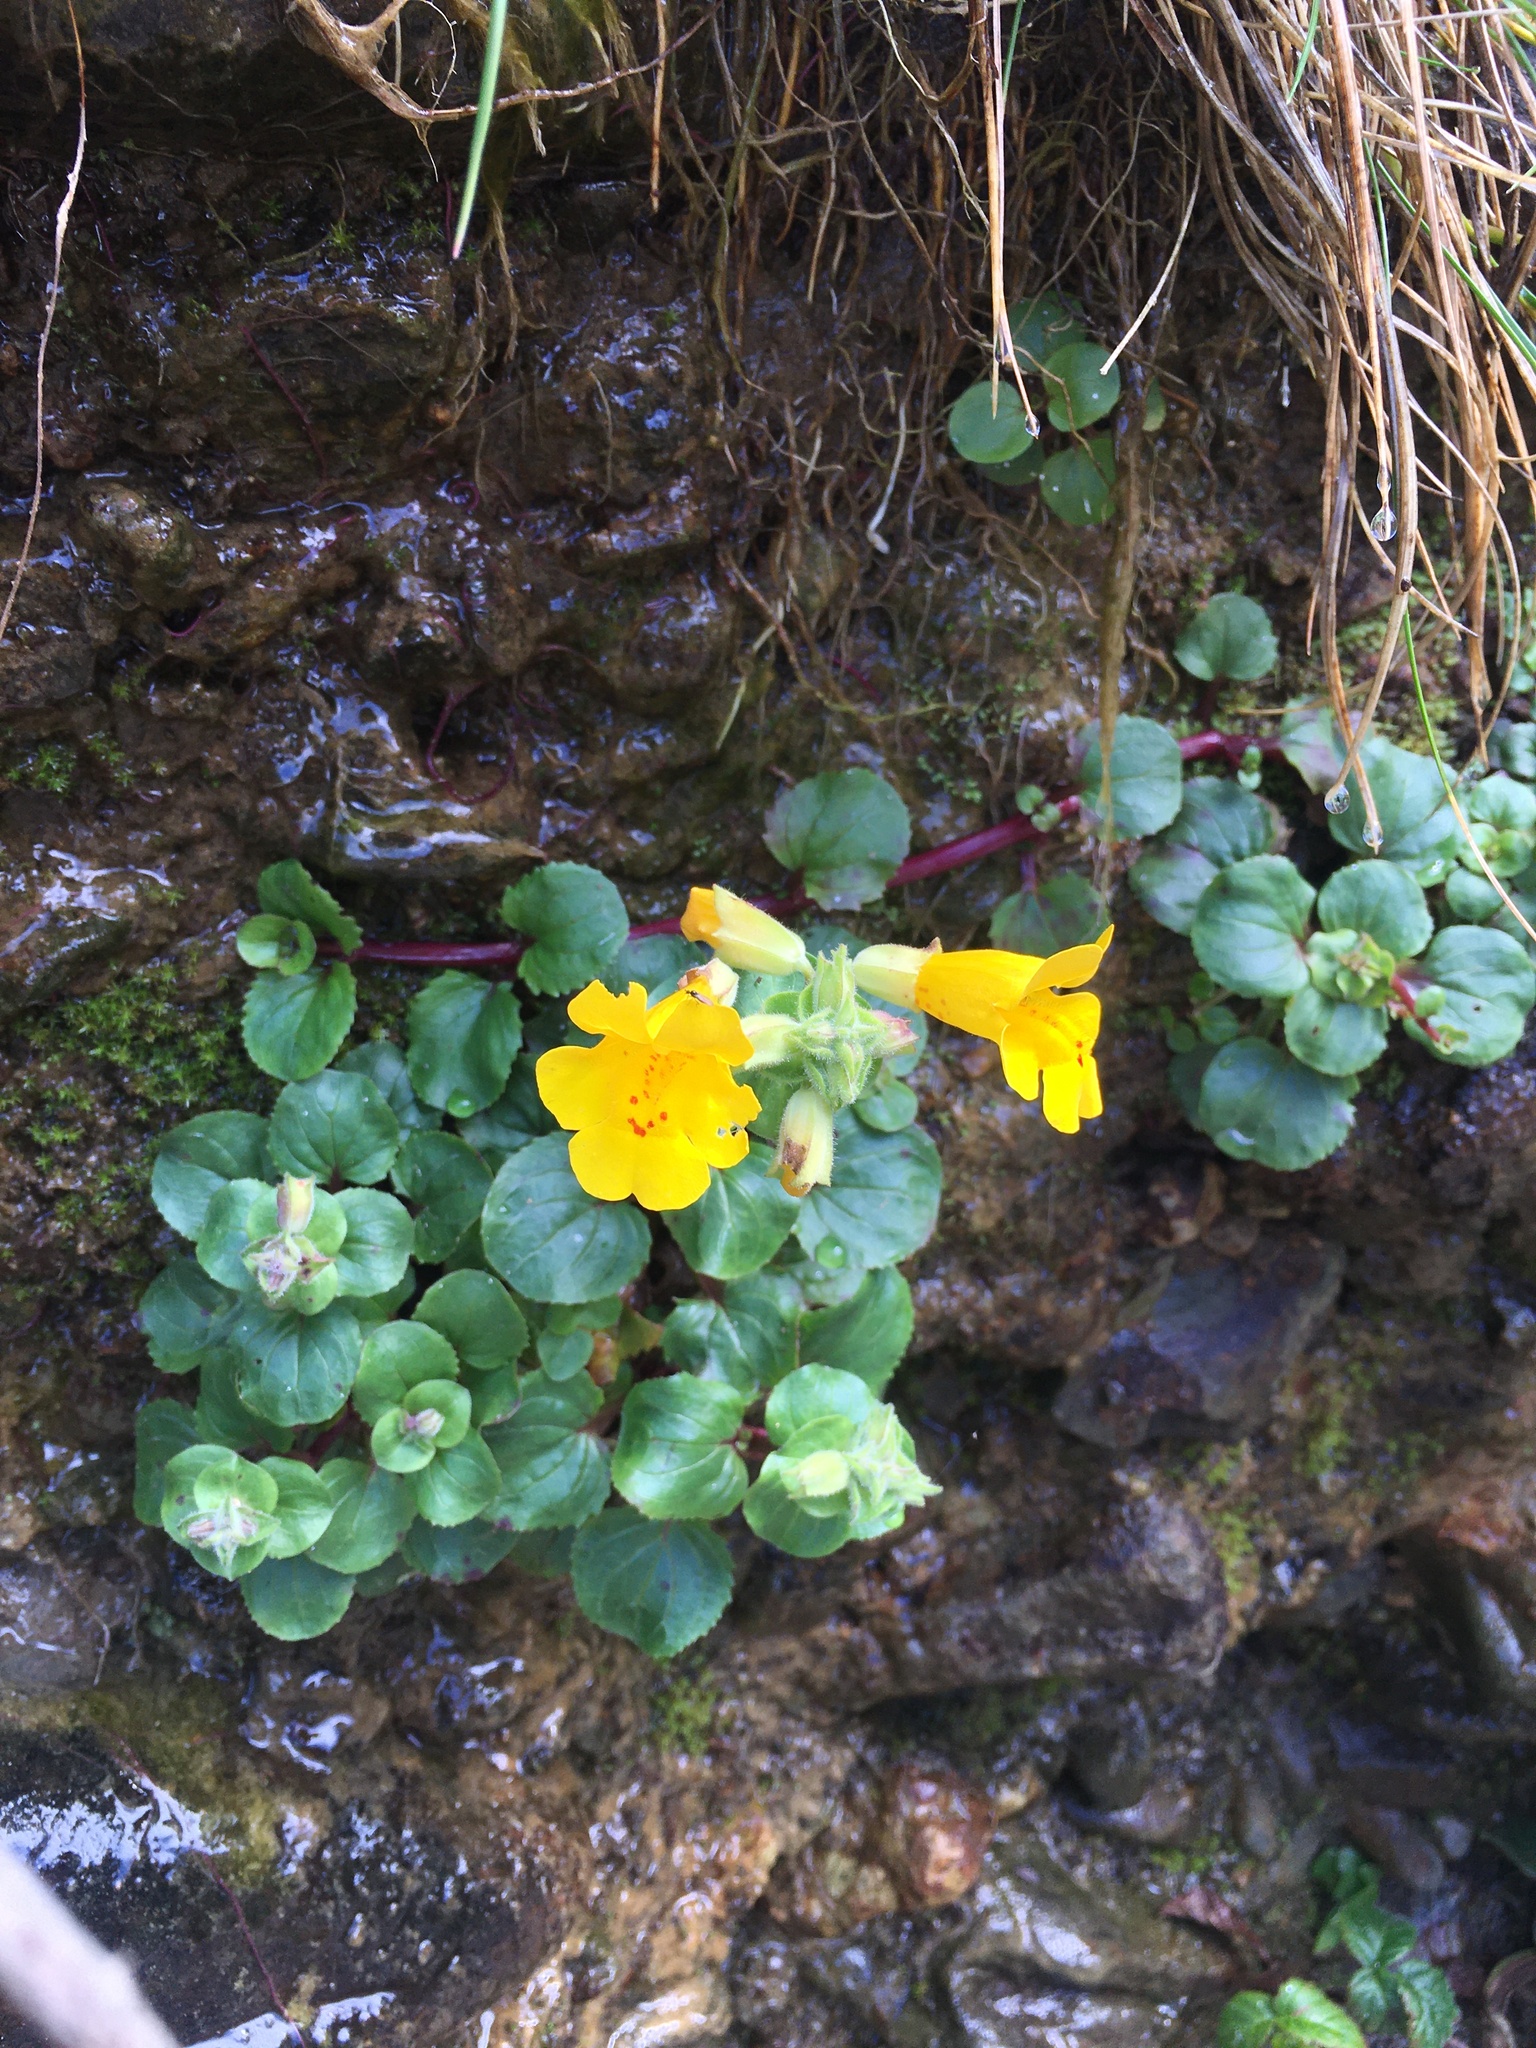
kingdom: Plantae
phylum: Tracheophyta
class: Magnoliopsida
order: Lamiales
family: Phrymaceae
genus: Erythranthe
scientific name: Erythranthe grandis
